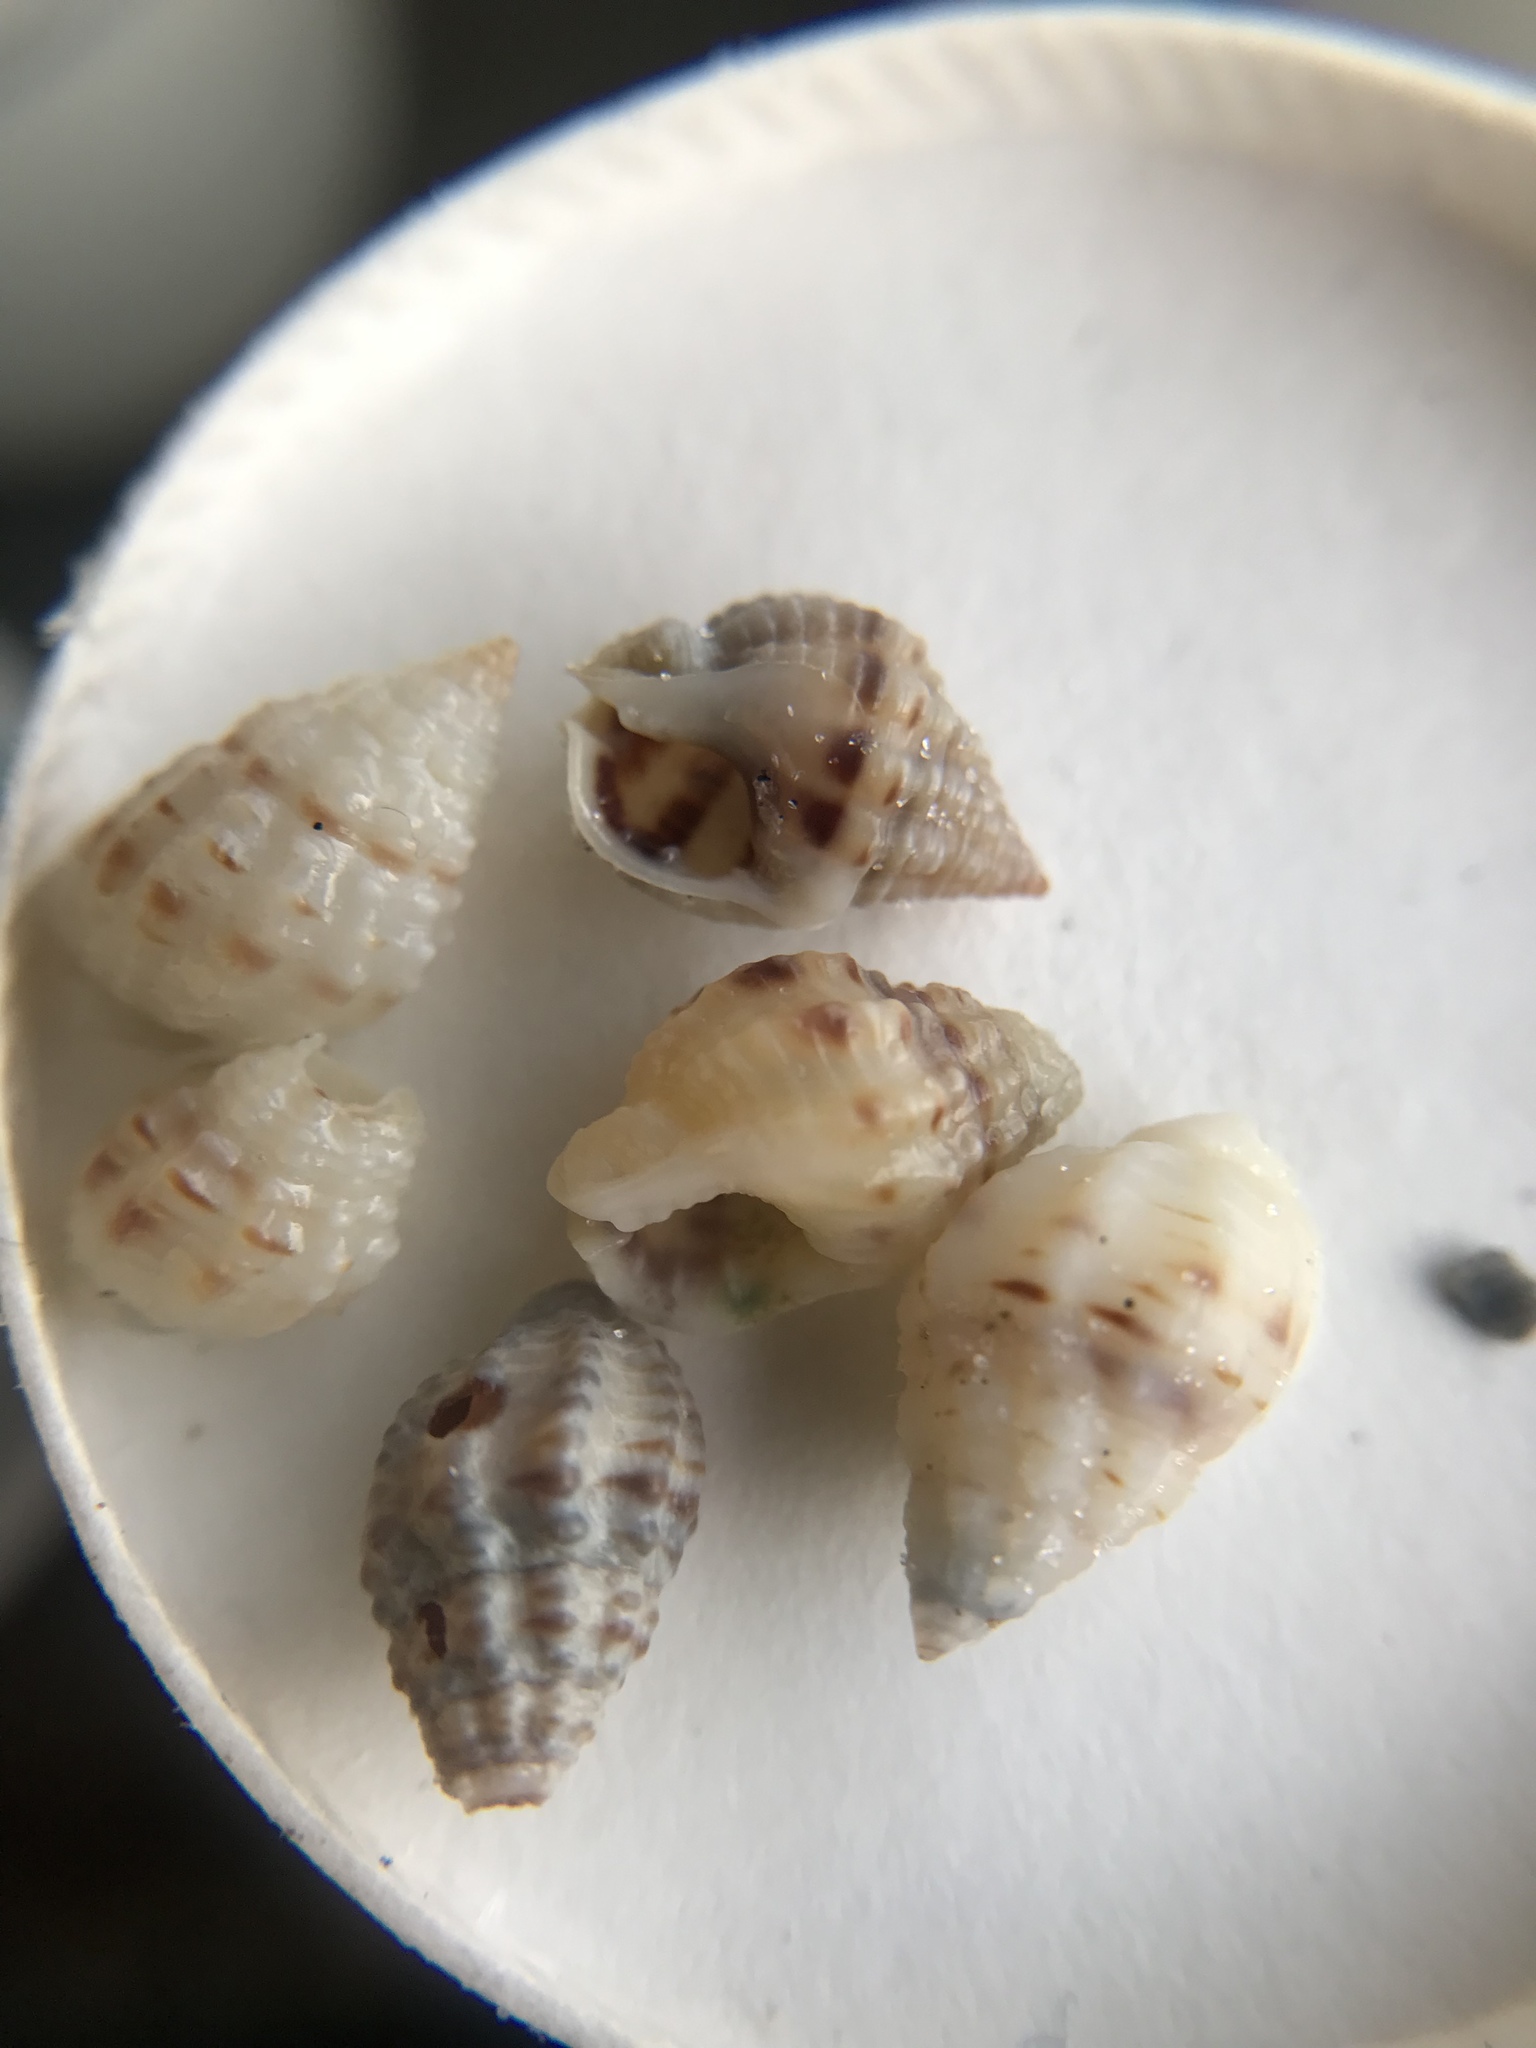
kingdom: Animalia
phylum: Mollusca
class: Gastropoda
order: Neogastropoda
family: Nassariidae
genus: Phrontis
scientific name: Phrontis vibex
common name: Bruised nassa
